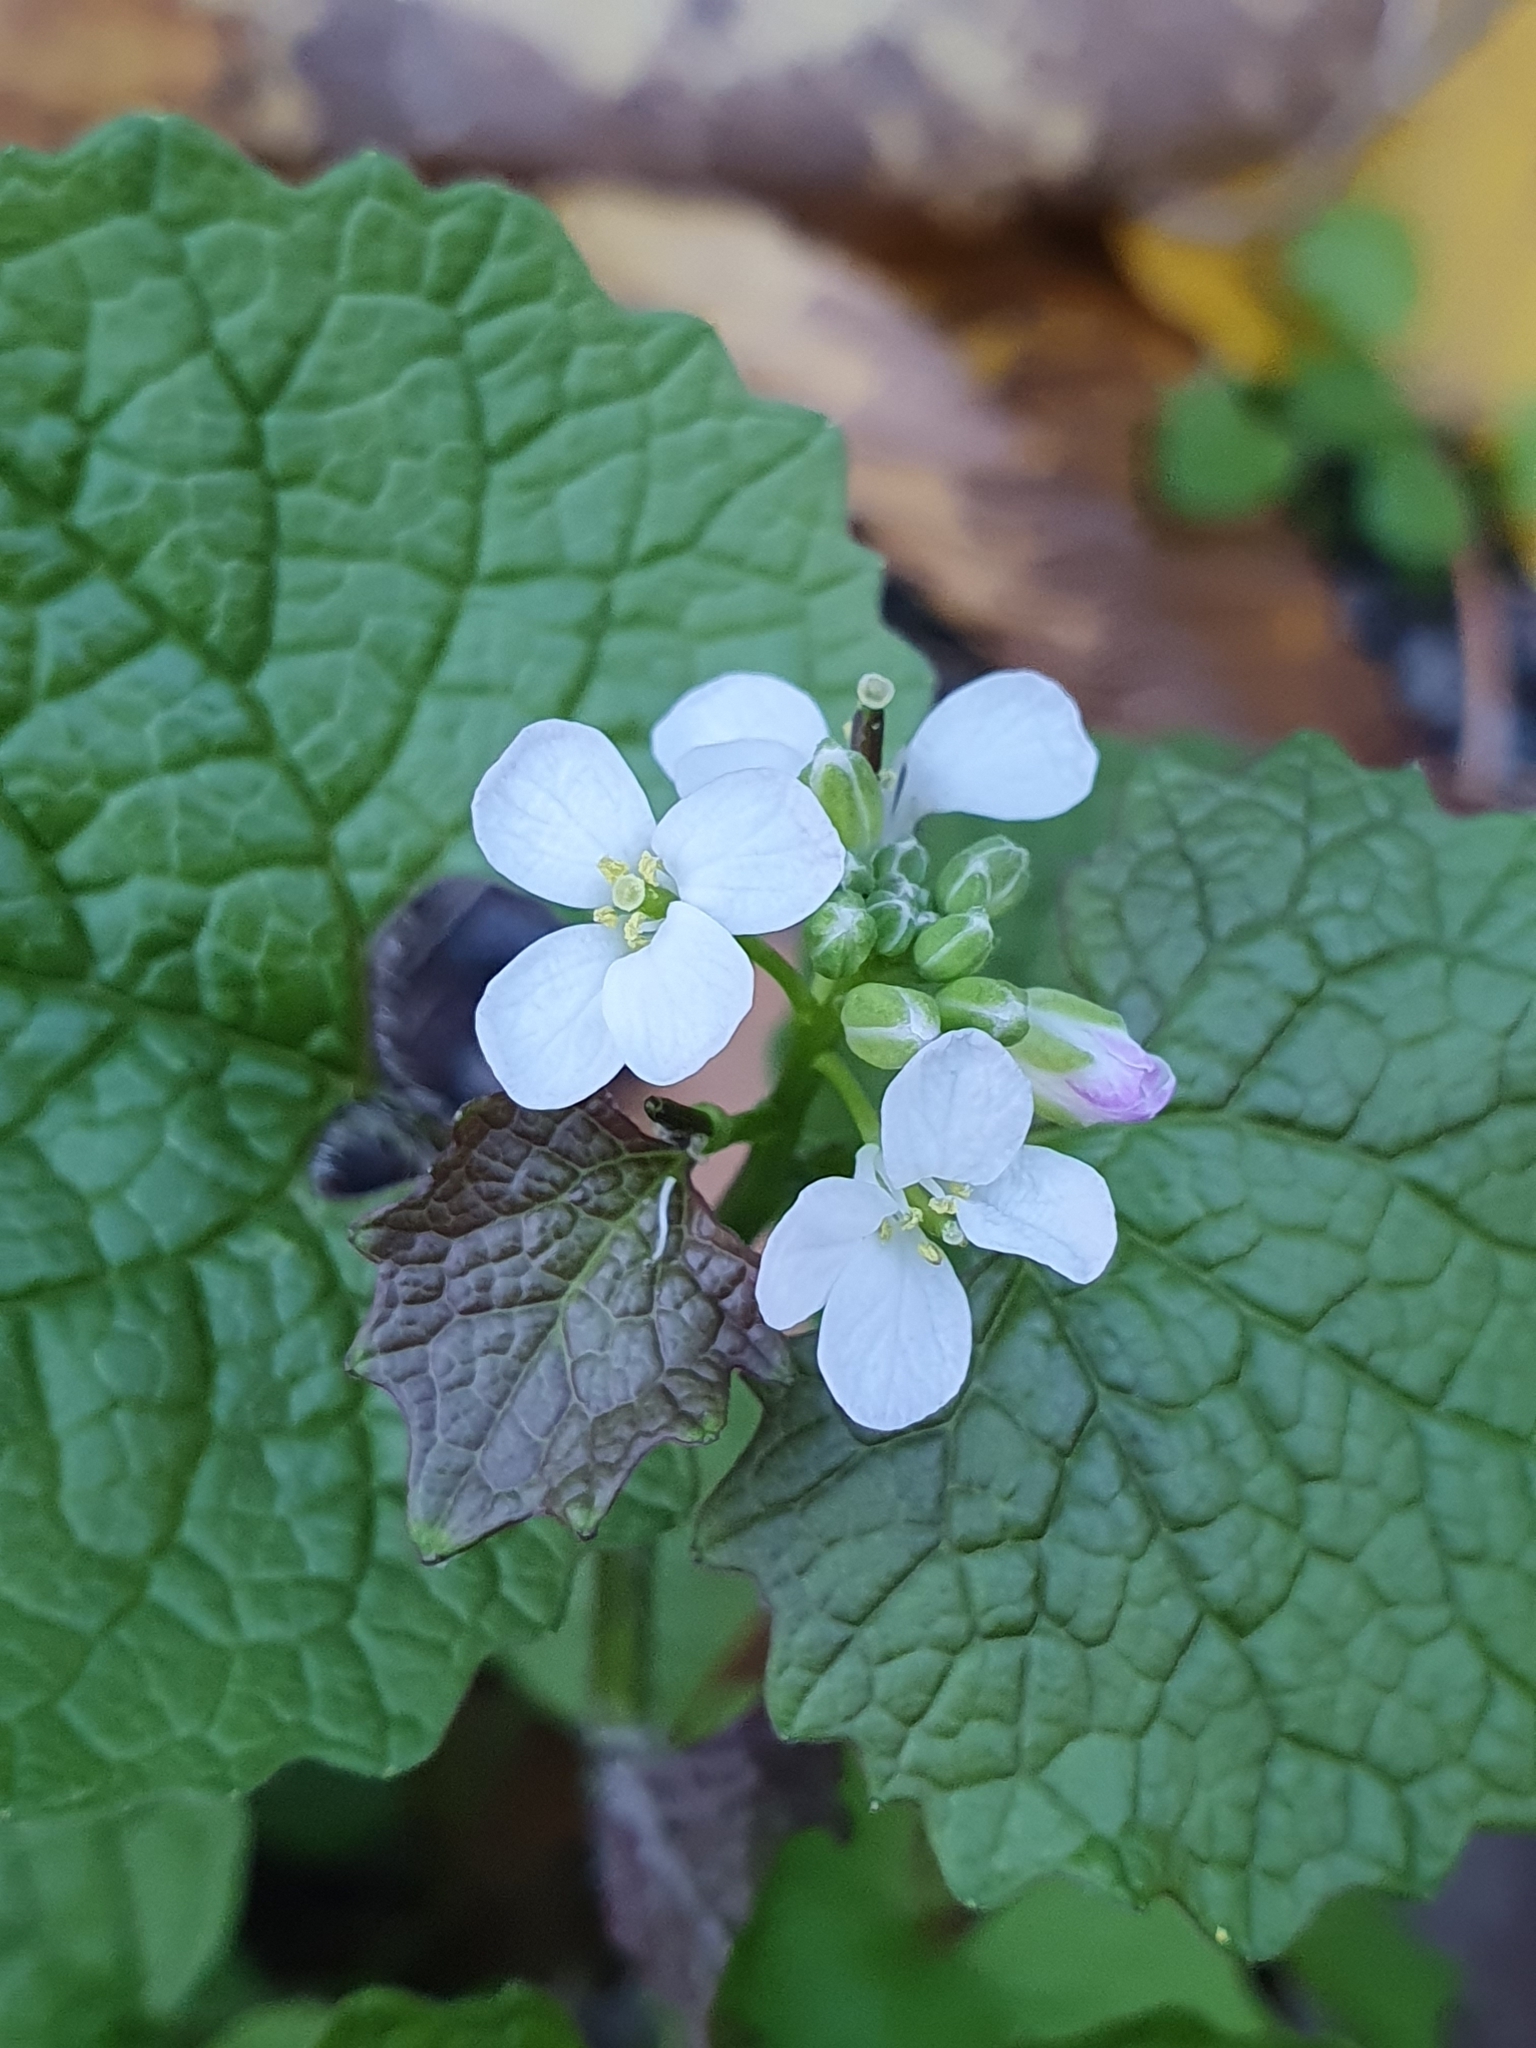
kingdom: Plantae
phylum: Tracheophyta
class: Magnoliopsida
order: Brassicales
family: Brassicaceae
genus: Alliaria
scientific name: Alliaria petiolata
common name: Garlic mustard
